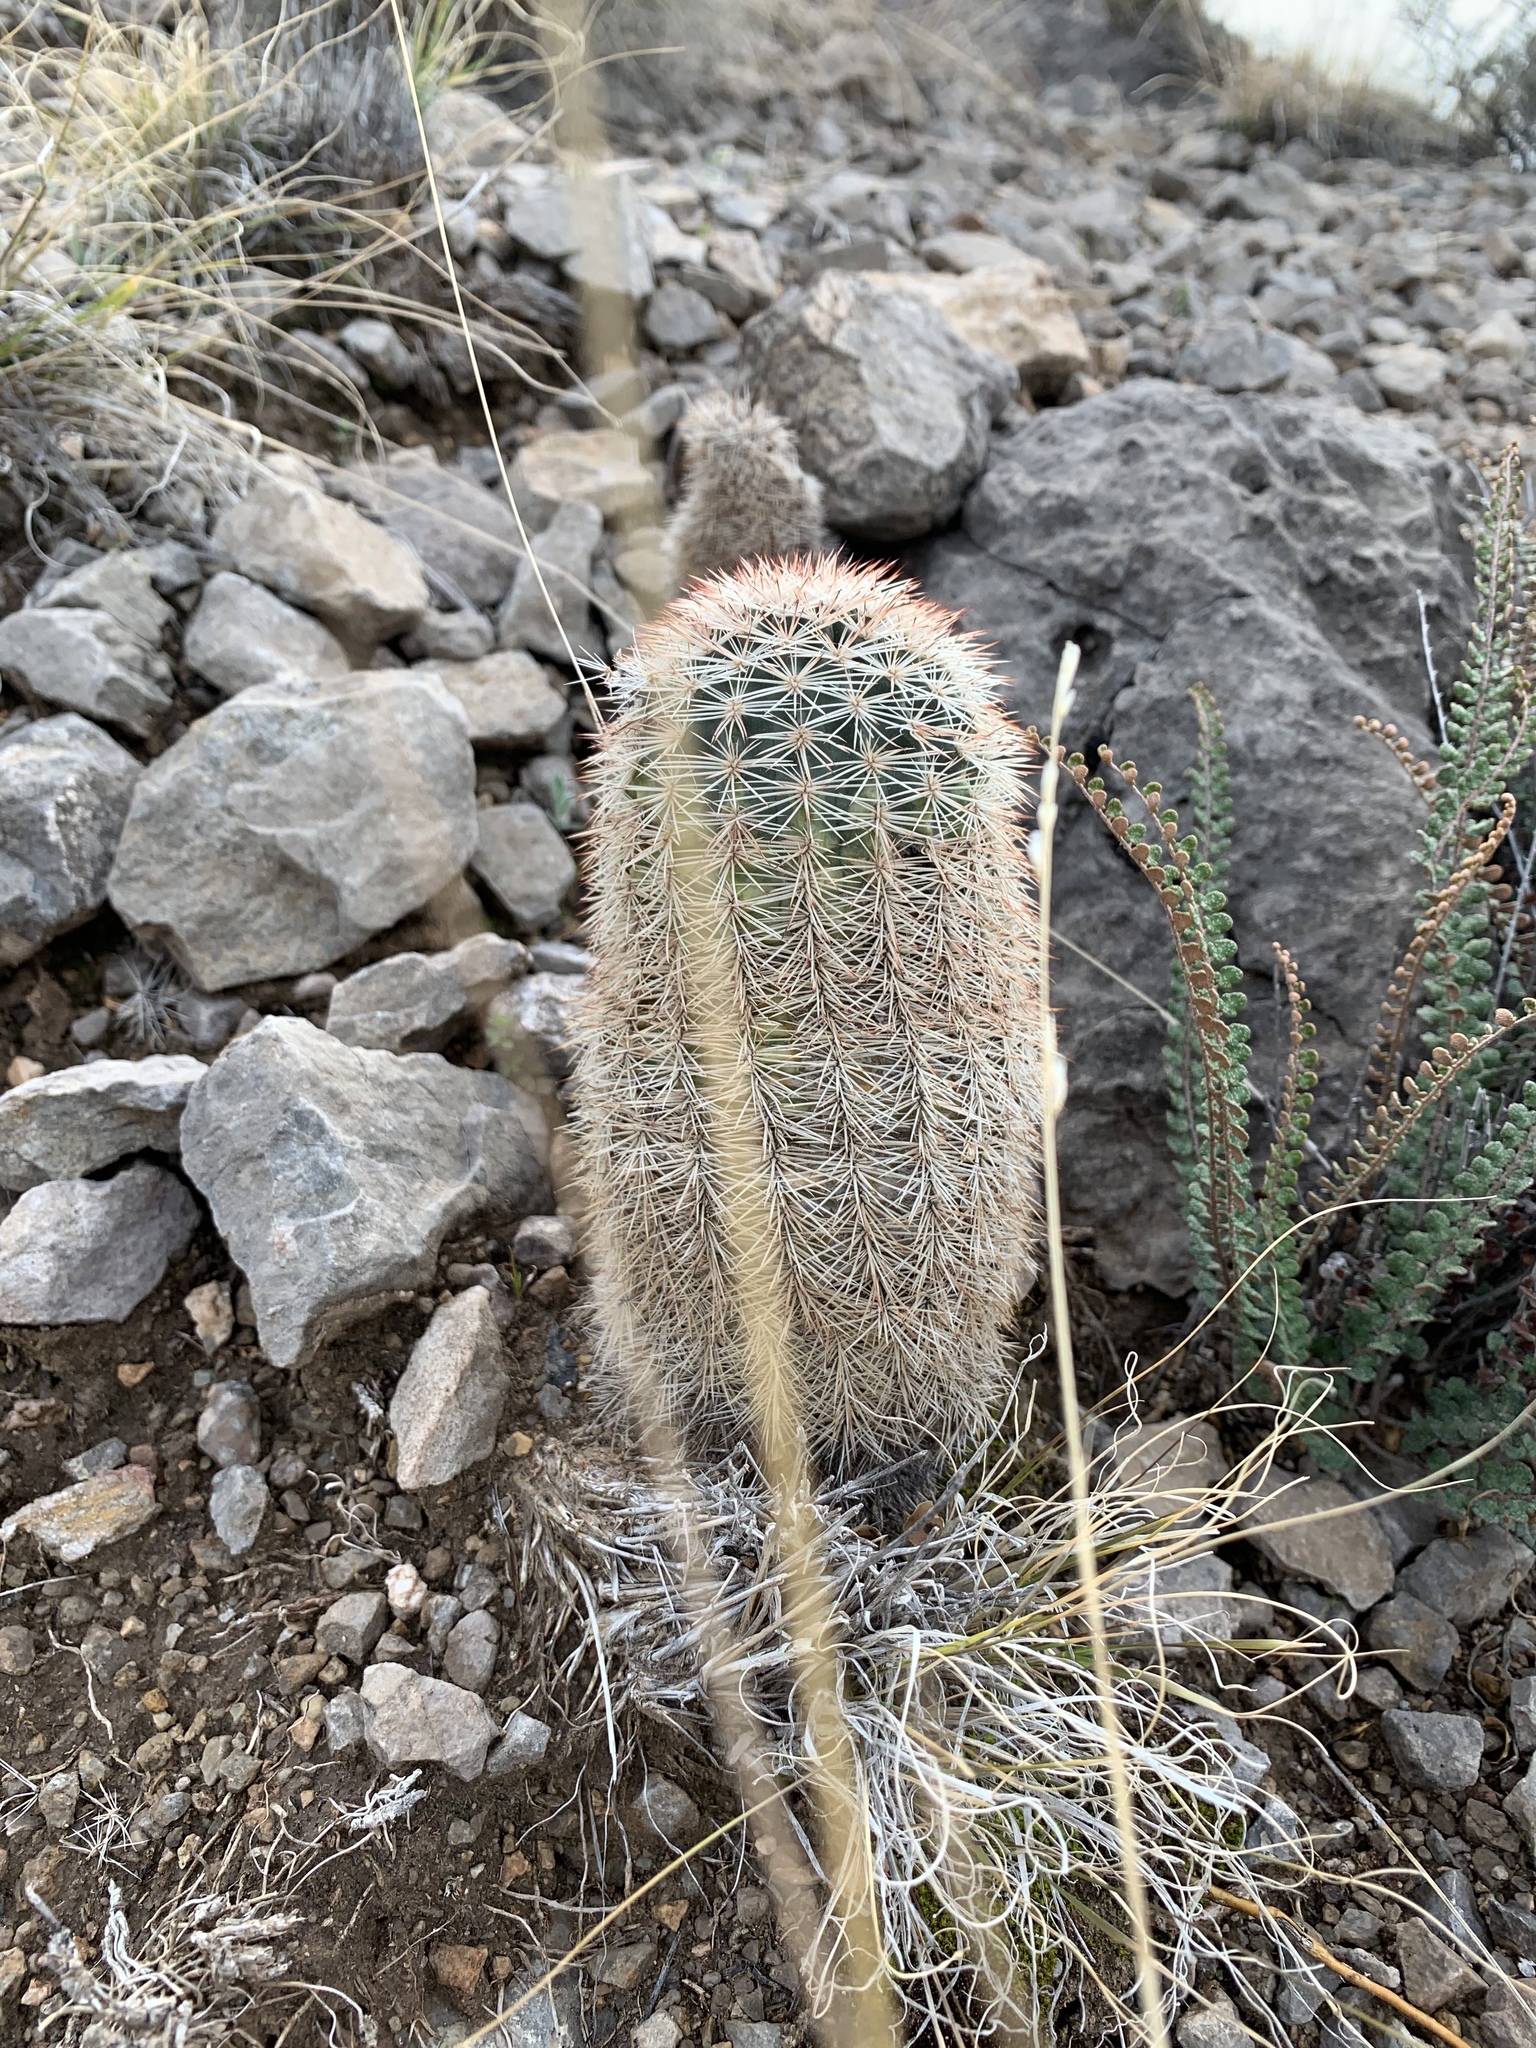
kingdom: Plantae
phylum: Tracheophyta
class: Magnoliopsida
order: Caryophyllales
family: Cactaceae
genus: Echinocereus
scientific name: Echinocereus dasyacanthus
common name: Spiny hedgehog cactus
